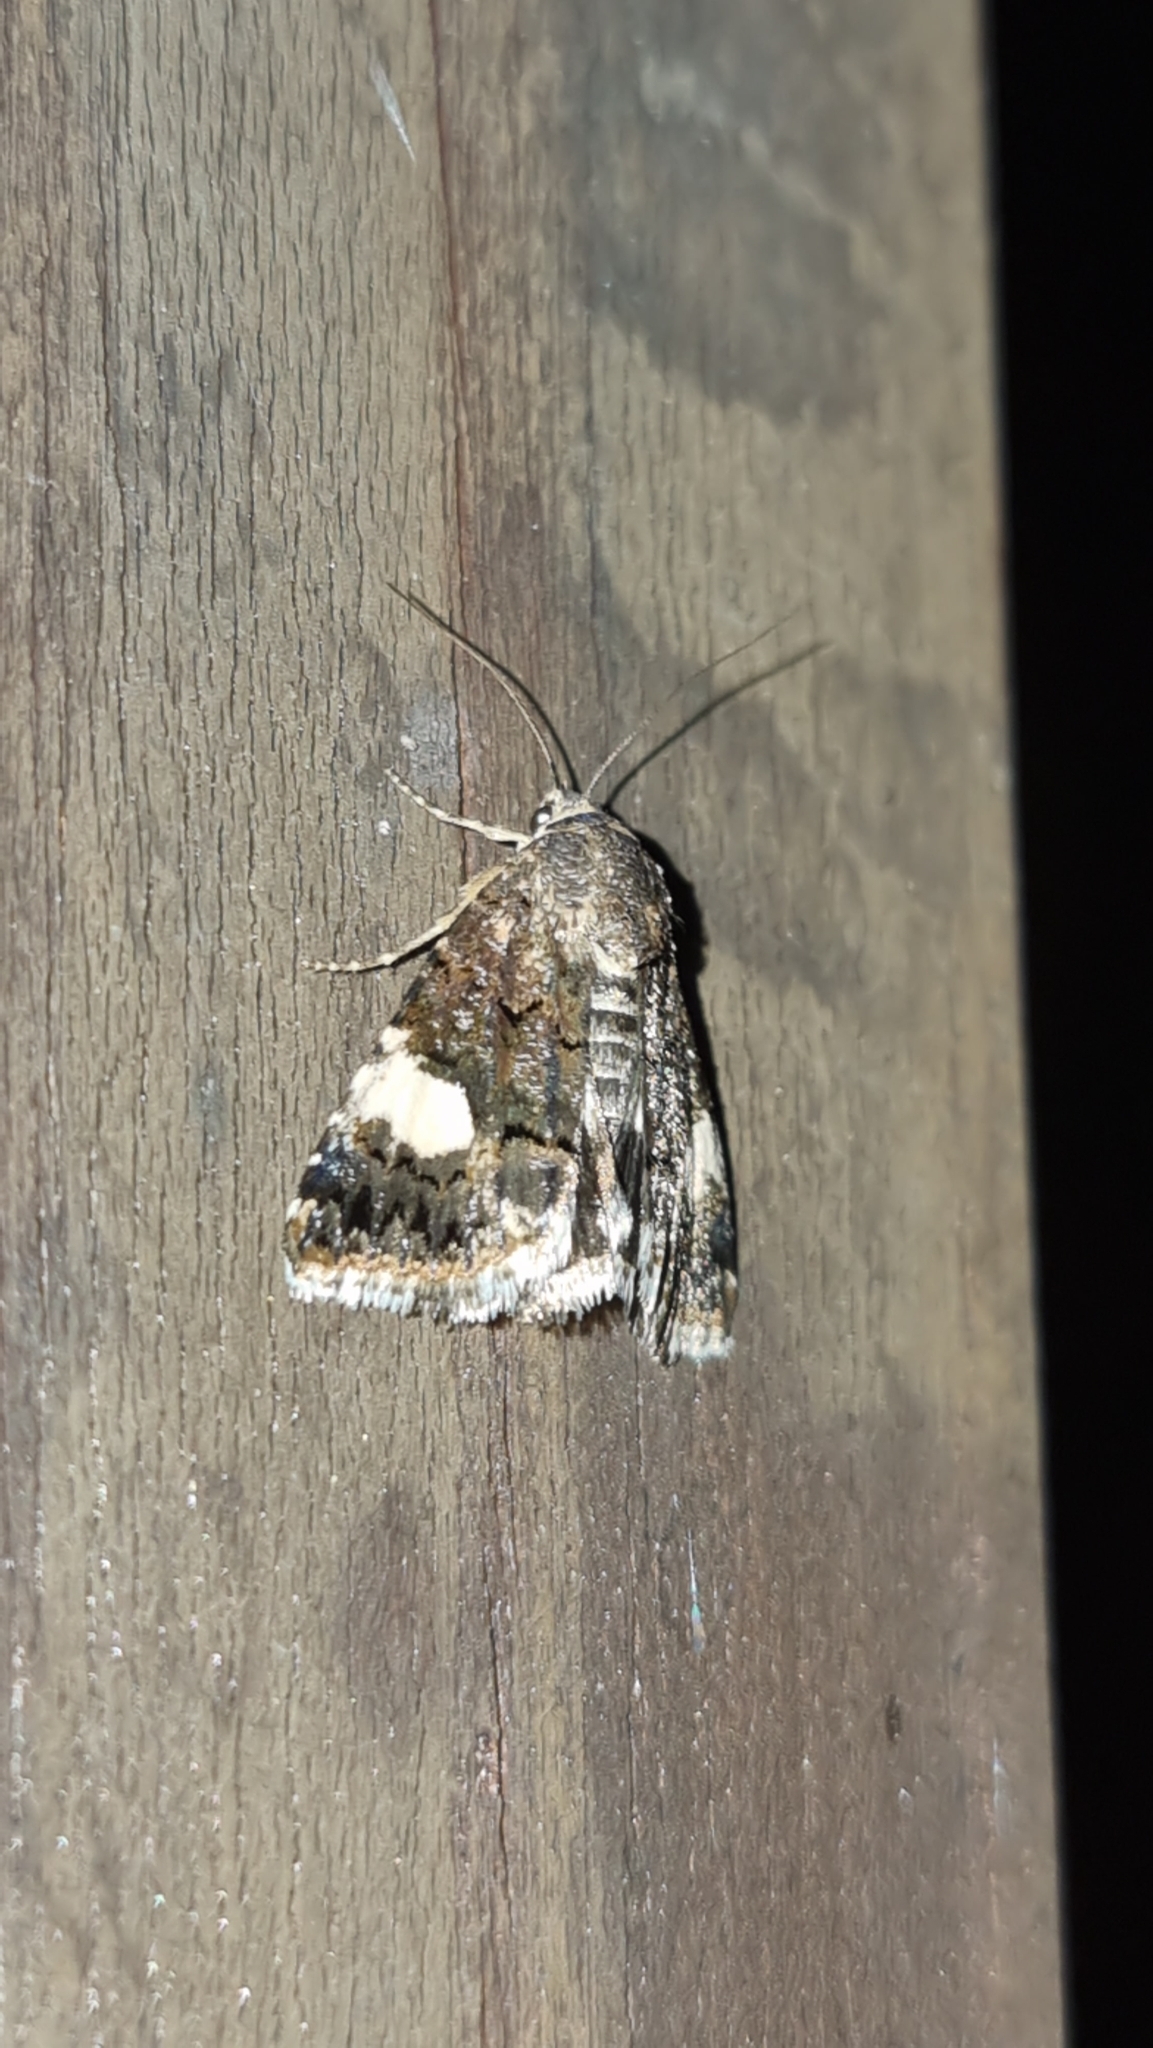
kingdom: Animalia
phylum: Arthropoda
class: Insecta
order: Lepidoptera
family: Erebidae
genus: Tyta
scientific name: Tyta luctuosa
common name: Four-spotted
